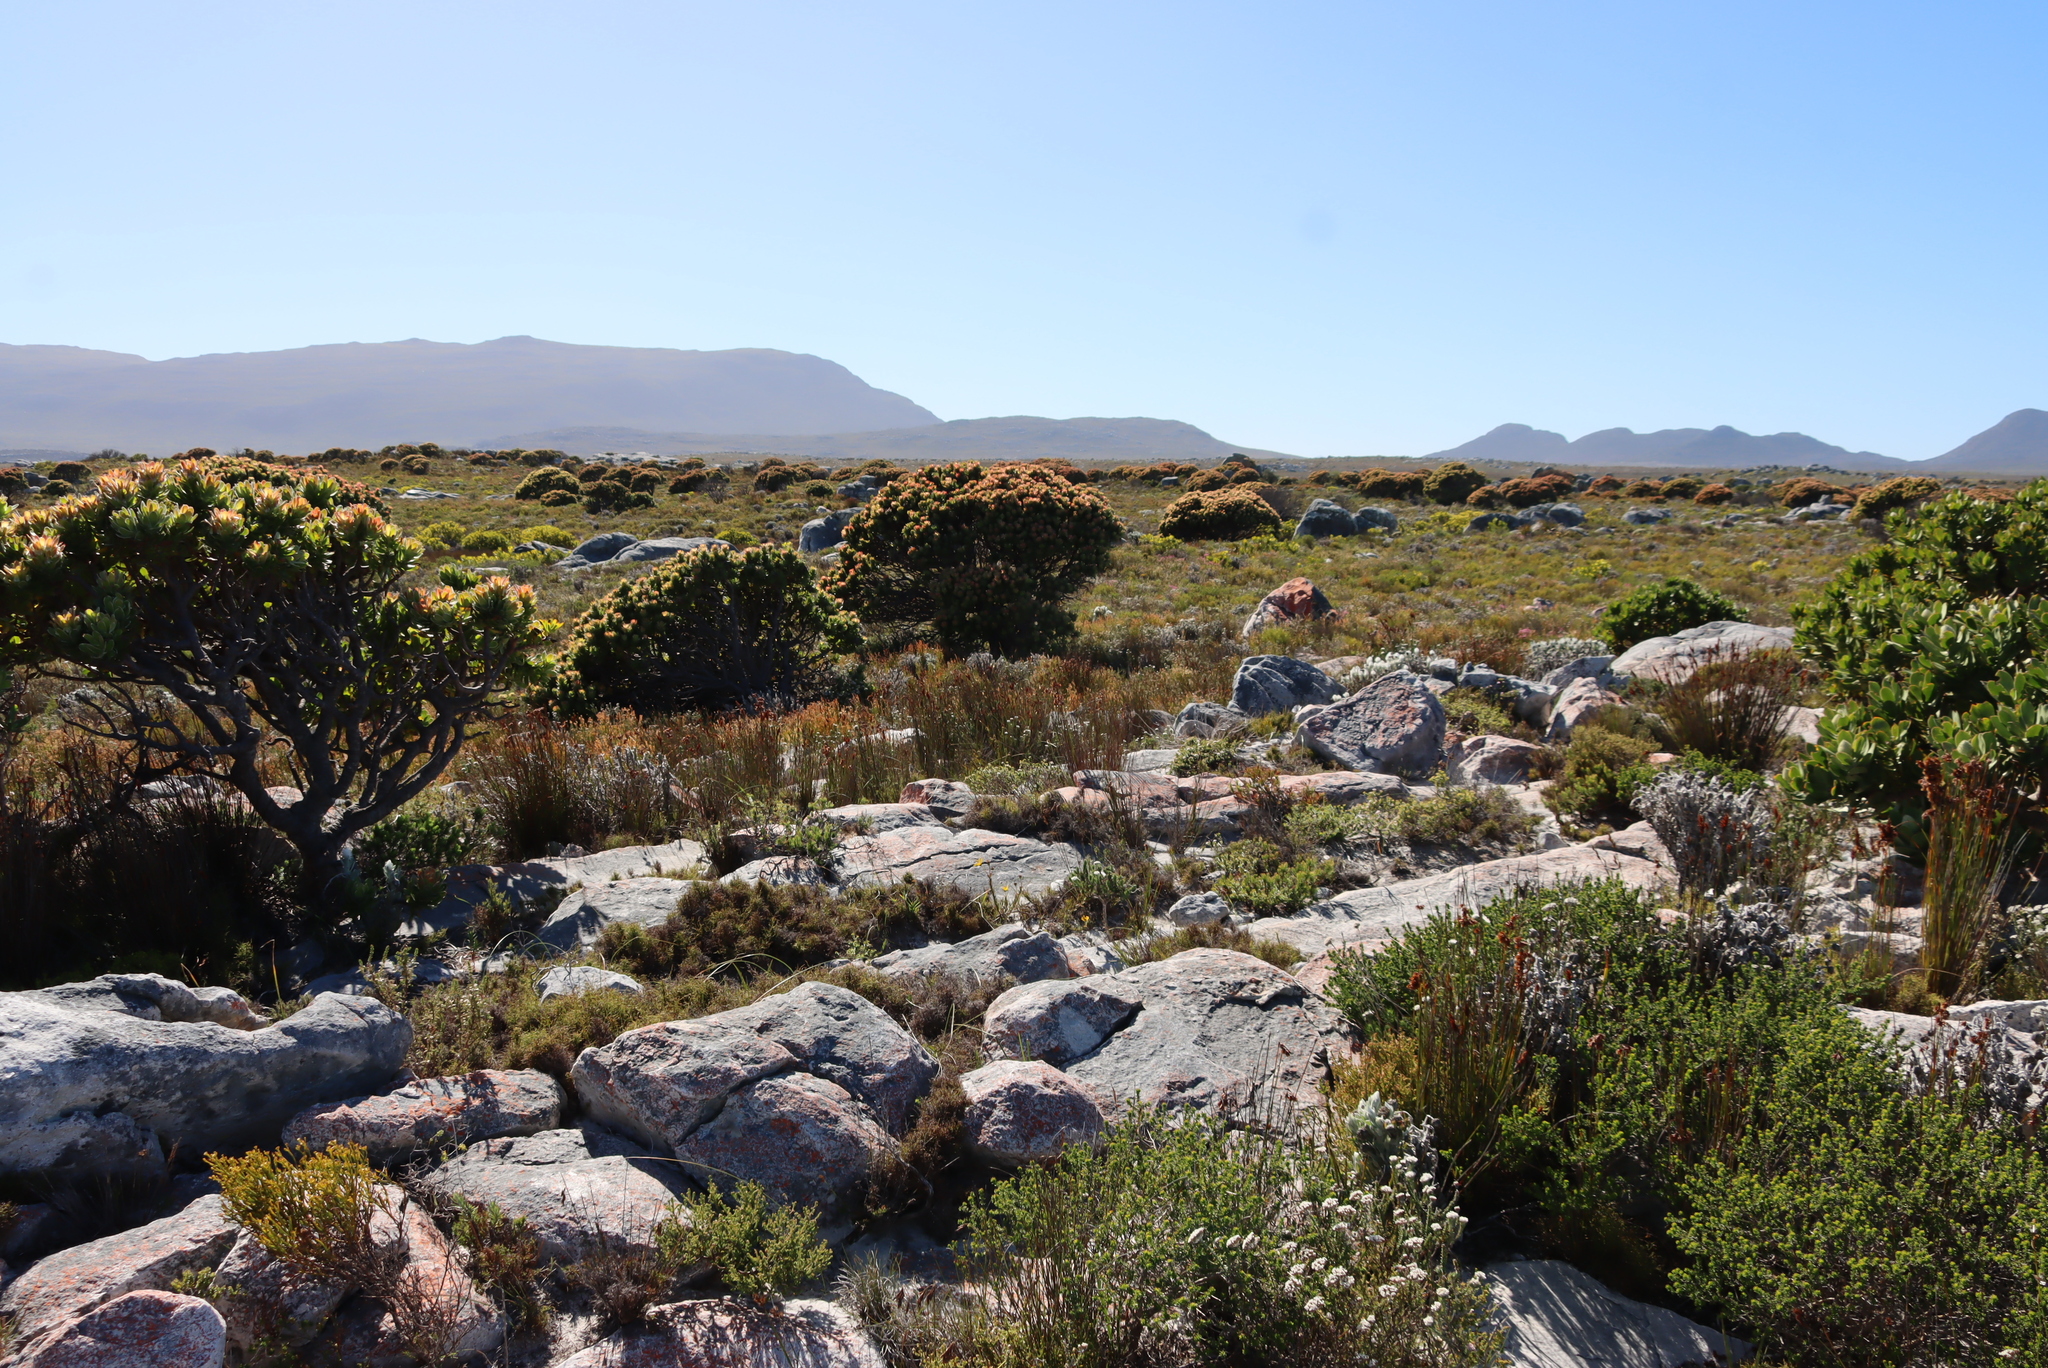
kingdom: Plantae
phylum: Tracheophyta
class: Magnoliopsida
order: Proteales
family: Proteaceae
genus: Mimetes
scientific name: Mimetes fimbriifolius
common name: Fringed bottlebrush
